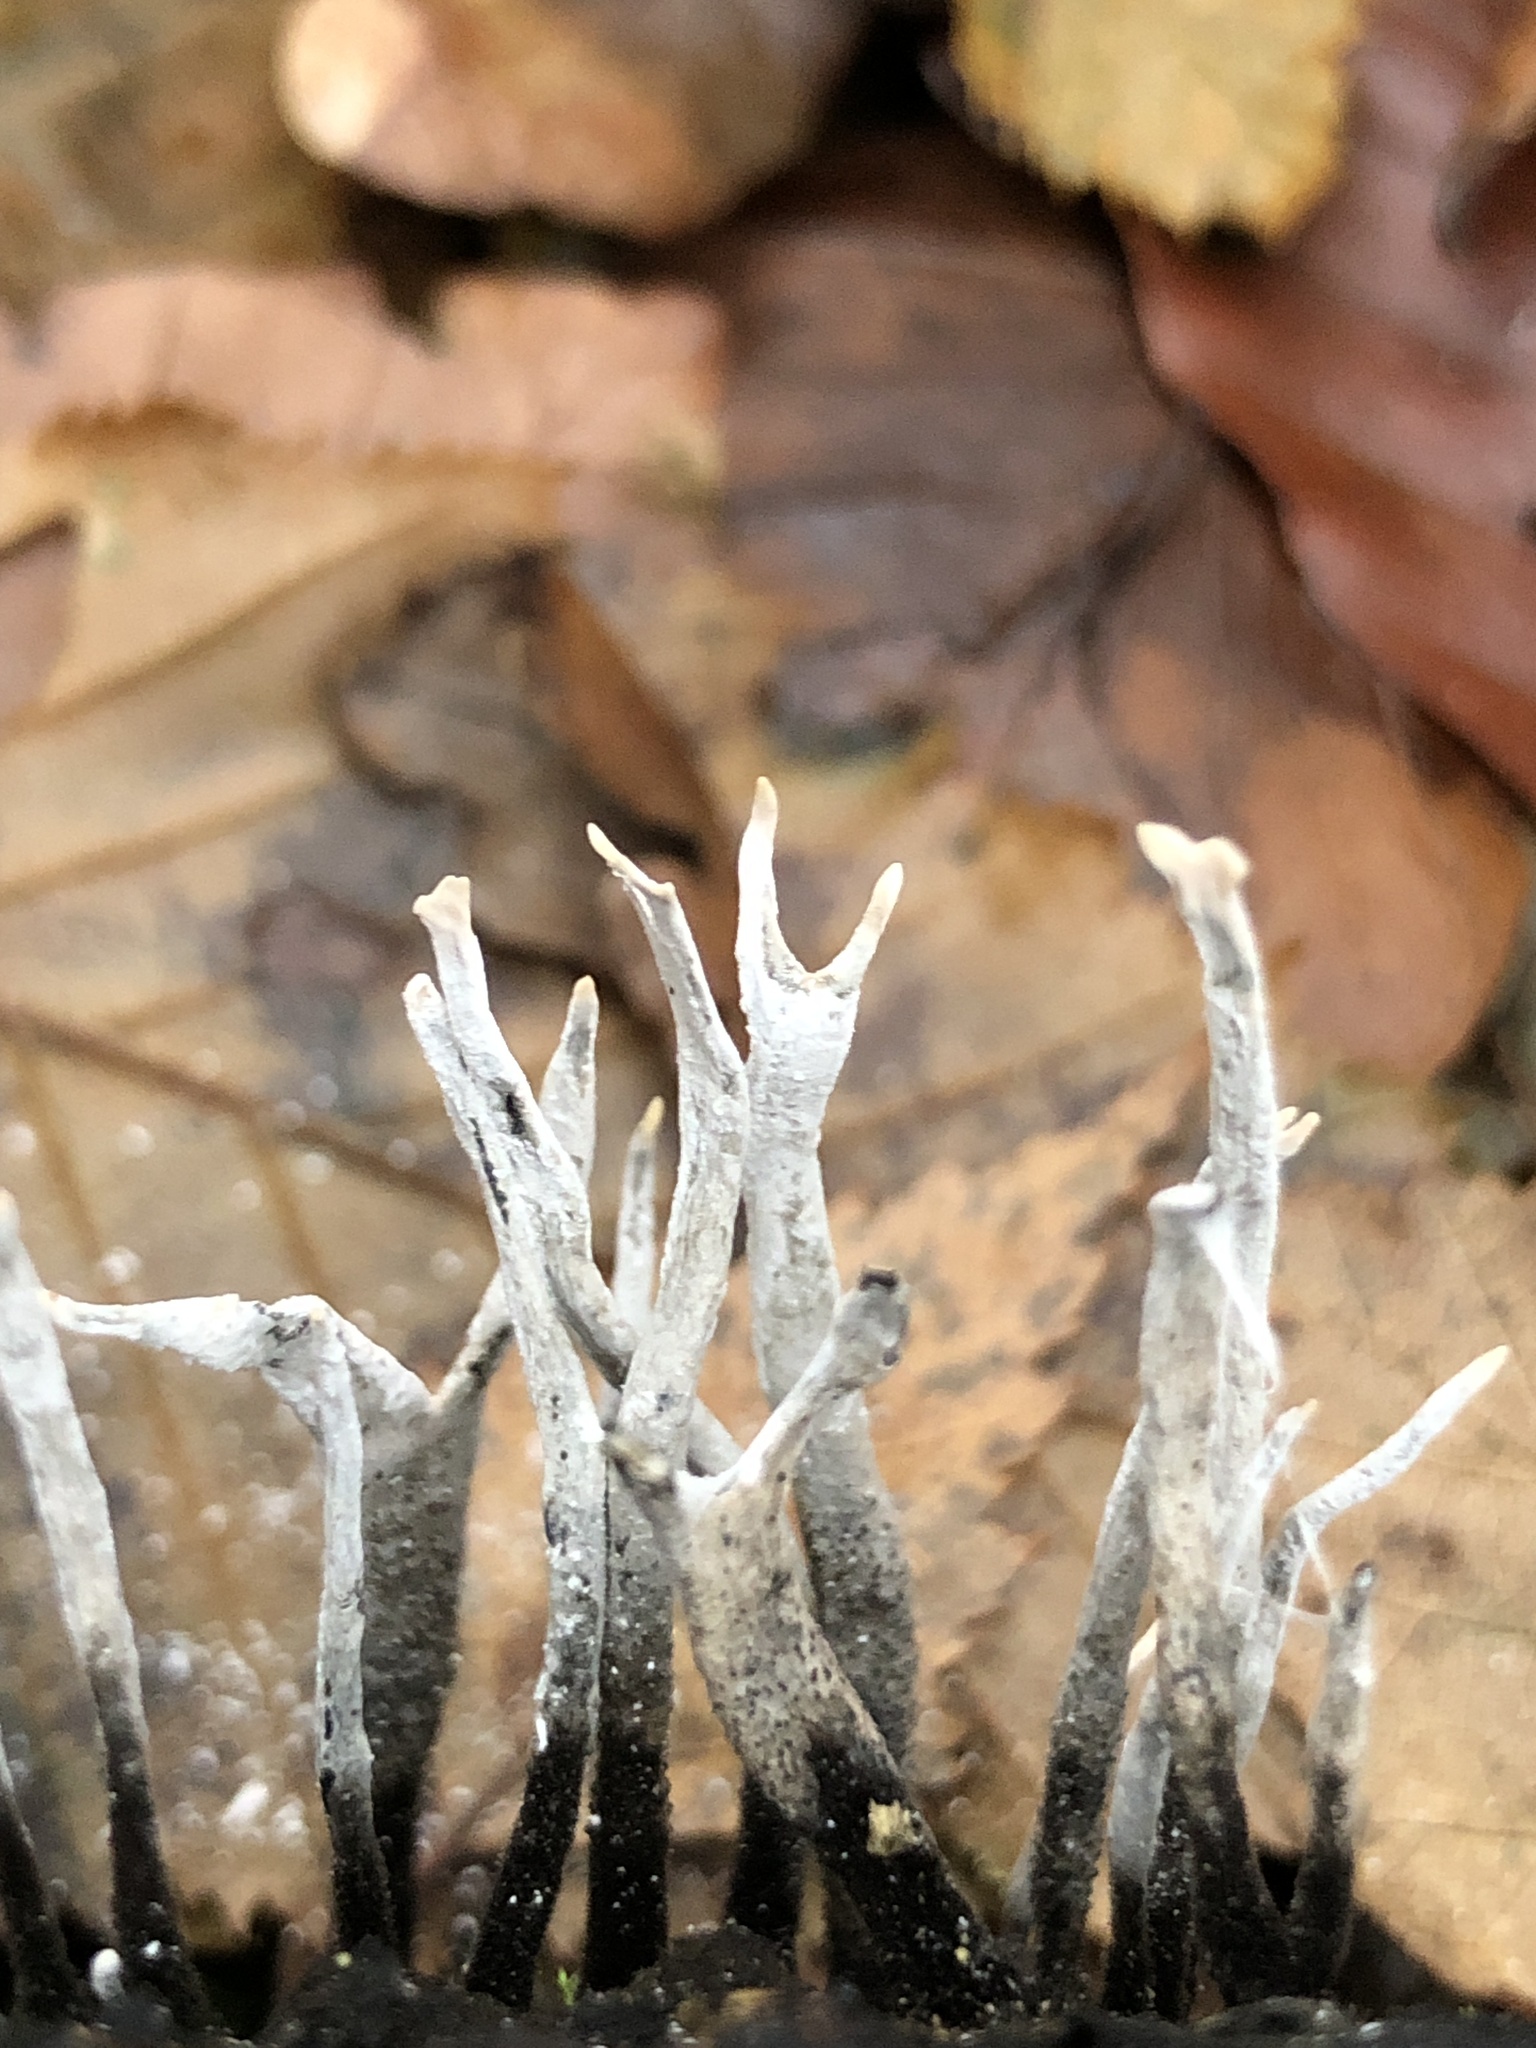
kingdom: Fungi
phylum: Ascomycota
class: Sordariomycetes
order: Xylariales
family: Xylariaceae
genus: Xylaria
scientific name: Xylaria hypoxylon
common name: Candle-snuff fungus
